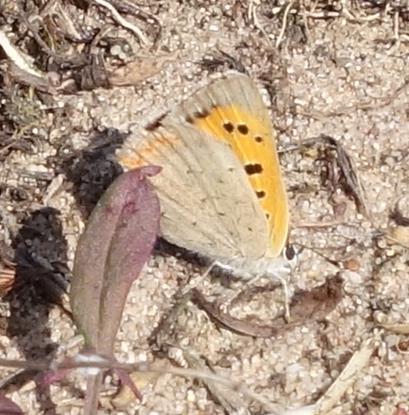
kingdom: Animalia
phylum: Arthropoda
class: Insecta
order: Lepidoptera
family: Lycaenidae
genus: Lycaena
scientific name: Lycaena phlaeas
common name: Small copper
